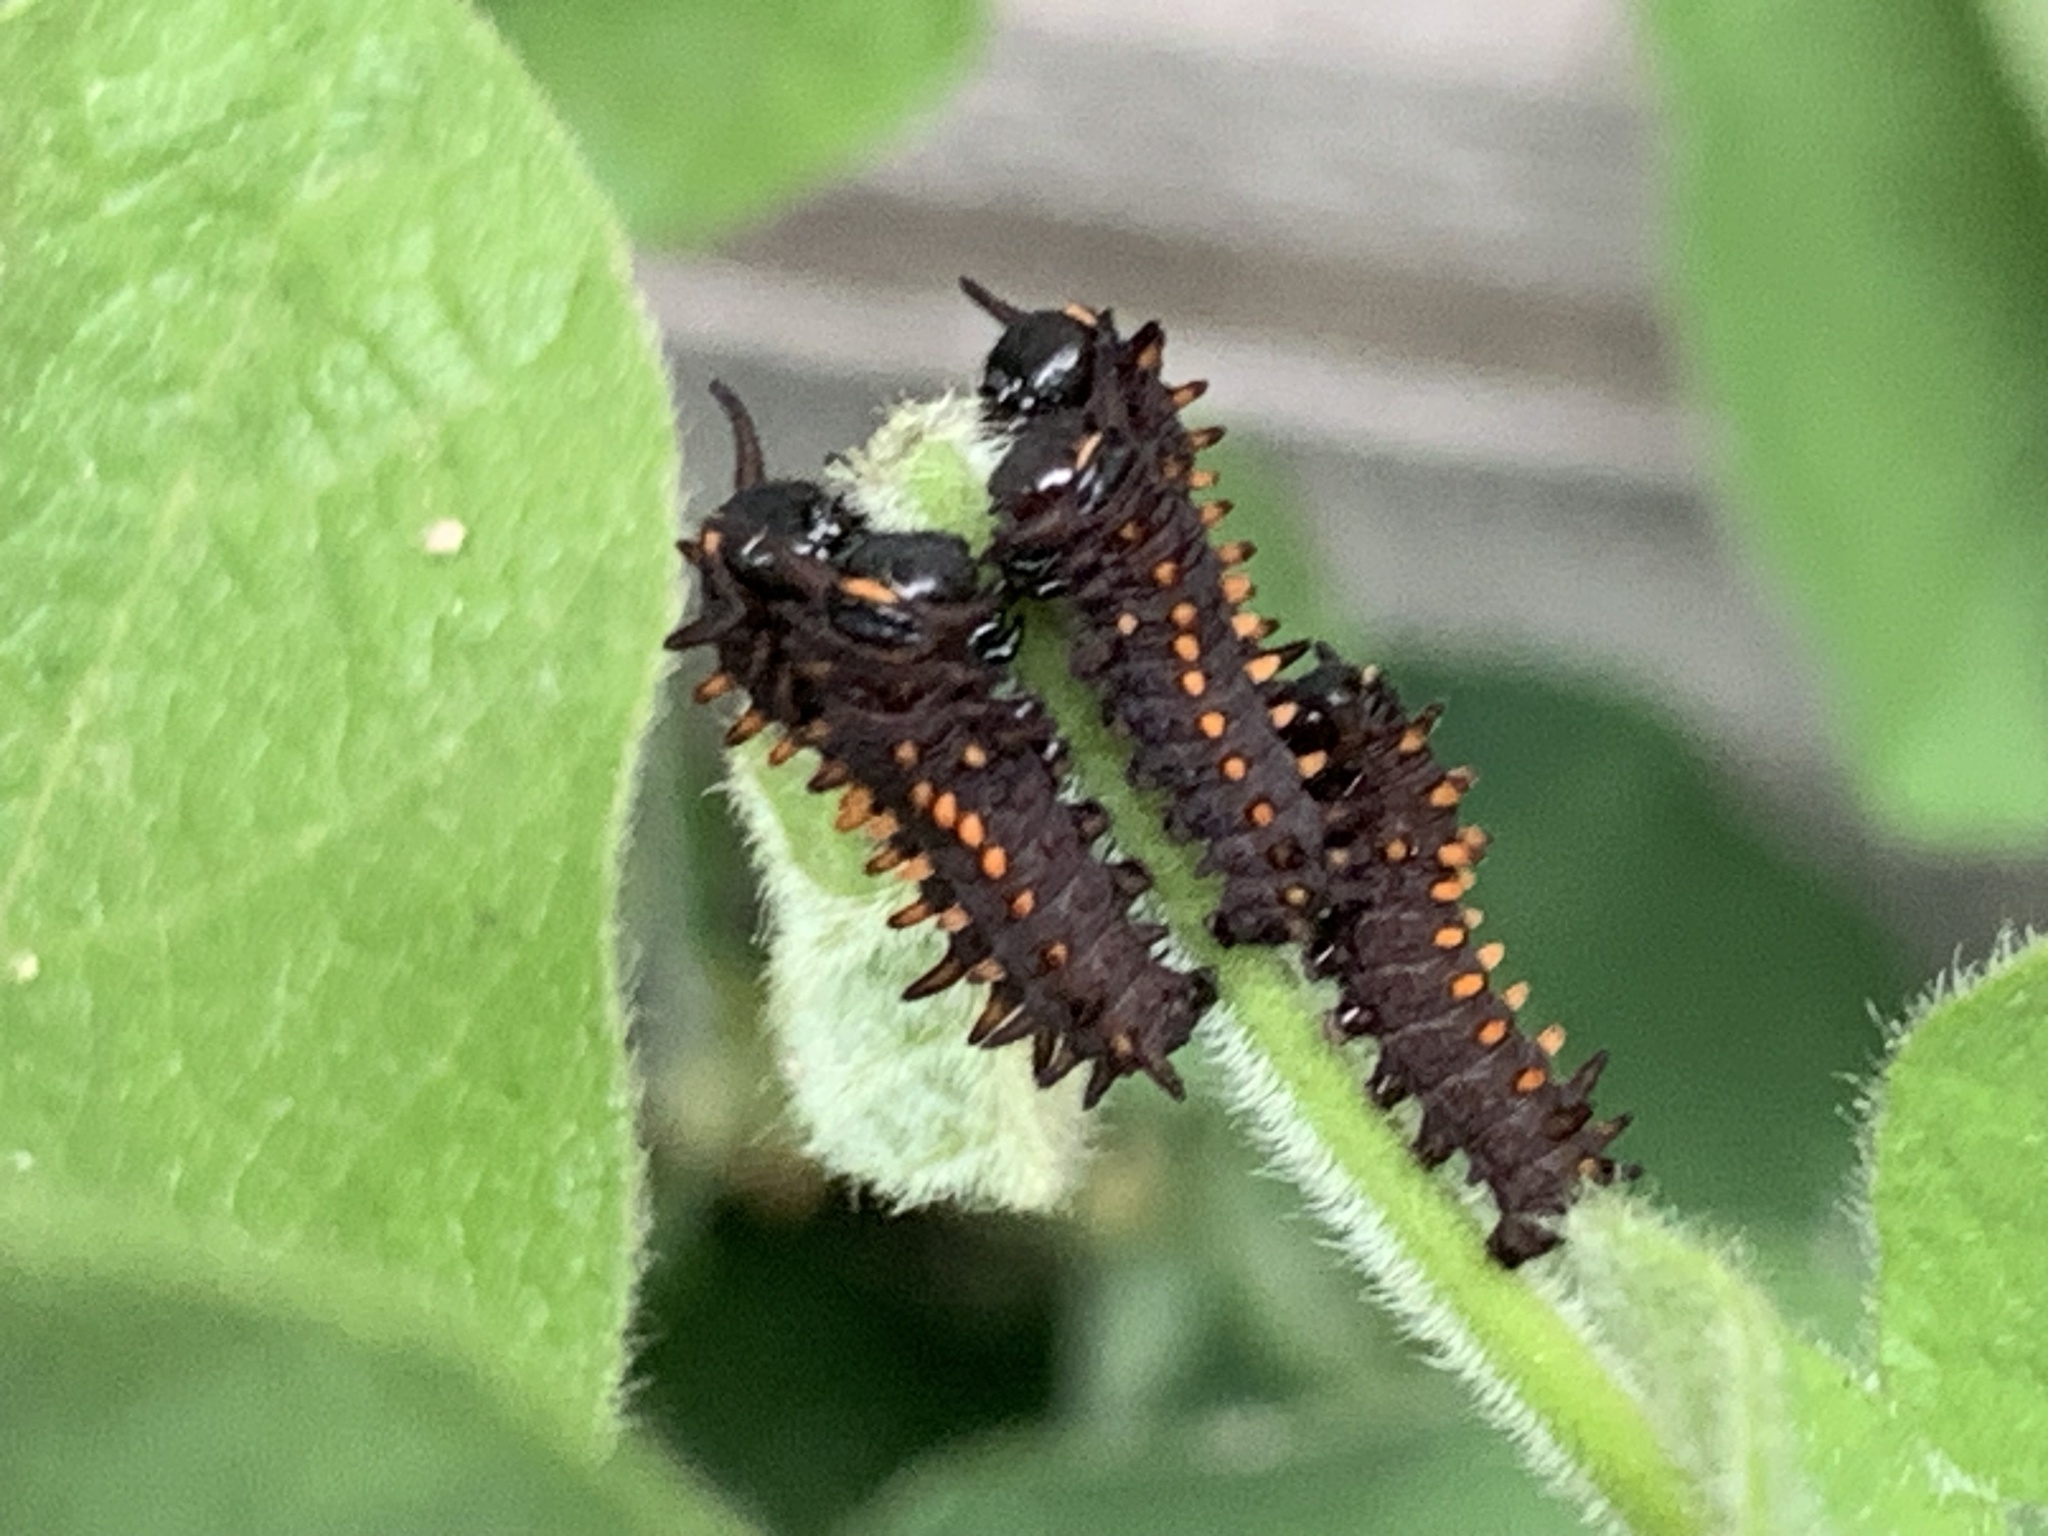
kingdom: Animalia
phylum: Arthropoda
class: Insecta
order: Lepidoptera
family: Papilionidae
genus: Battus
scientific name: Battus philenor
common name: Pipevine swallowtail
